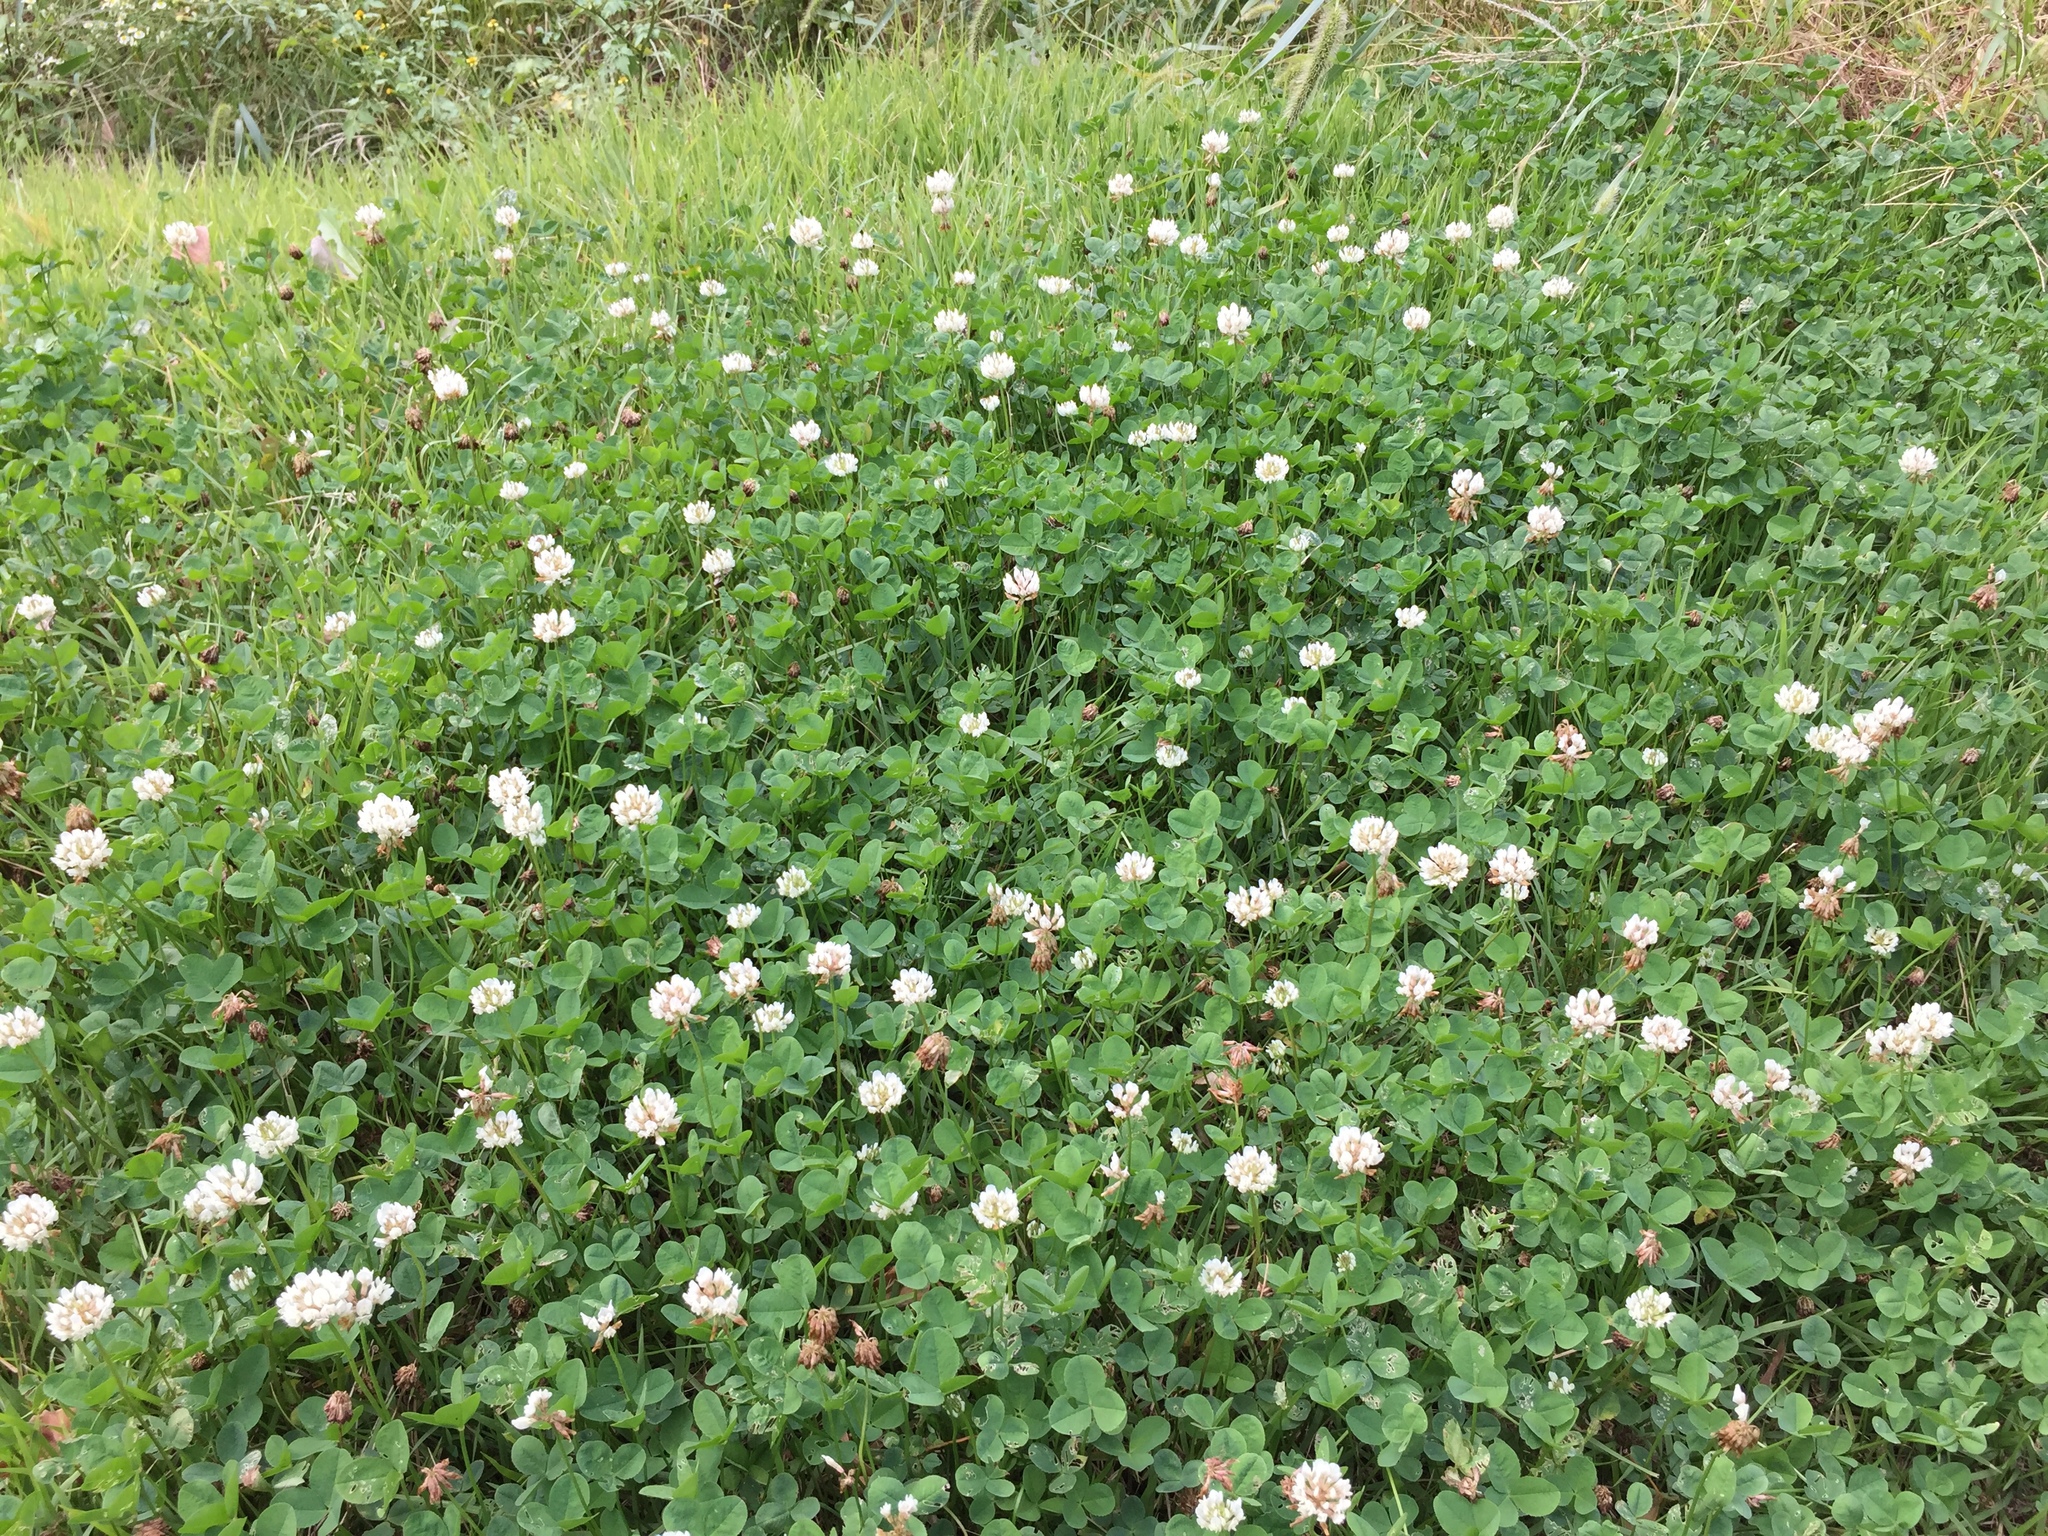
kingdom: Plantae
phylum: Tracheophyta
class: Magnoliopsida
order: Fabales
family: Fabaceae
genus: Trifolium
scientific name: Trifolium repens
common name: White clover
